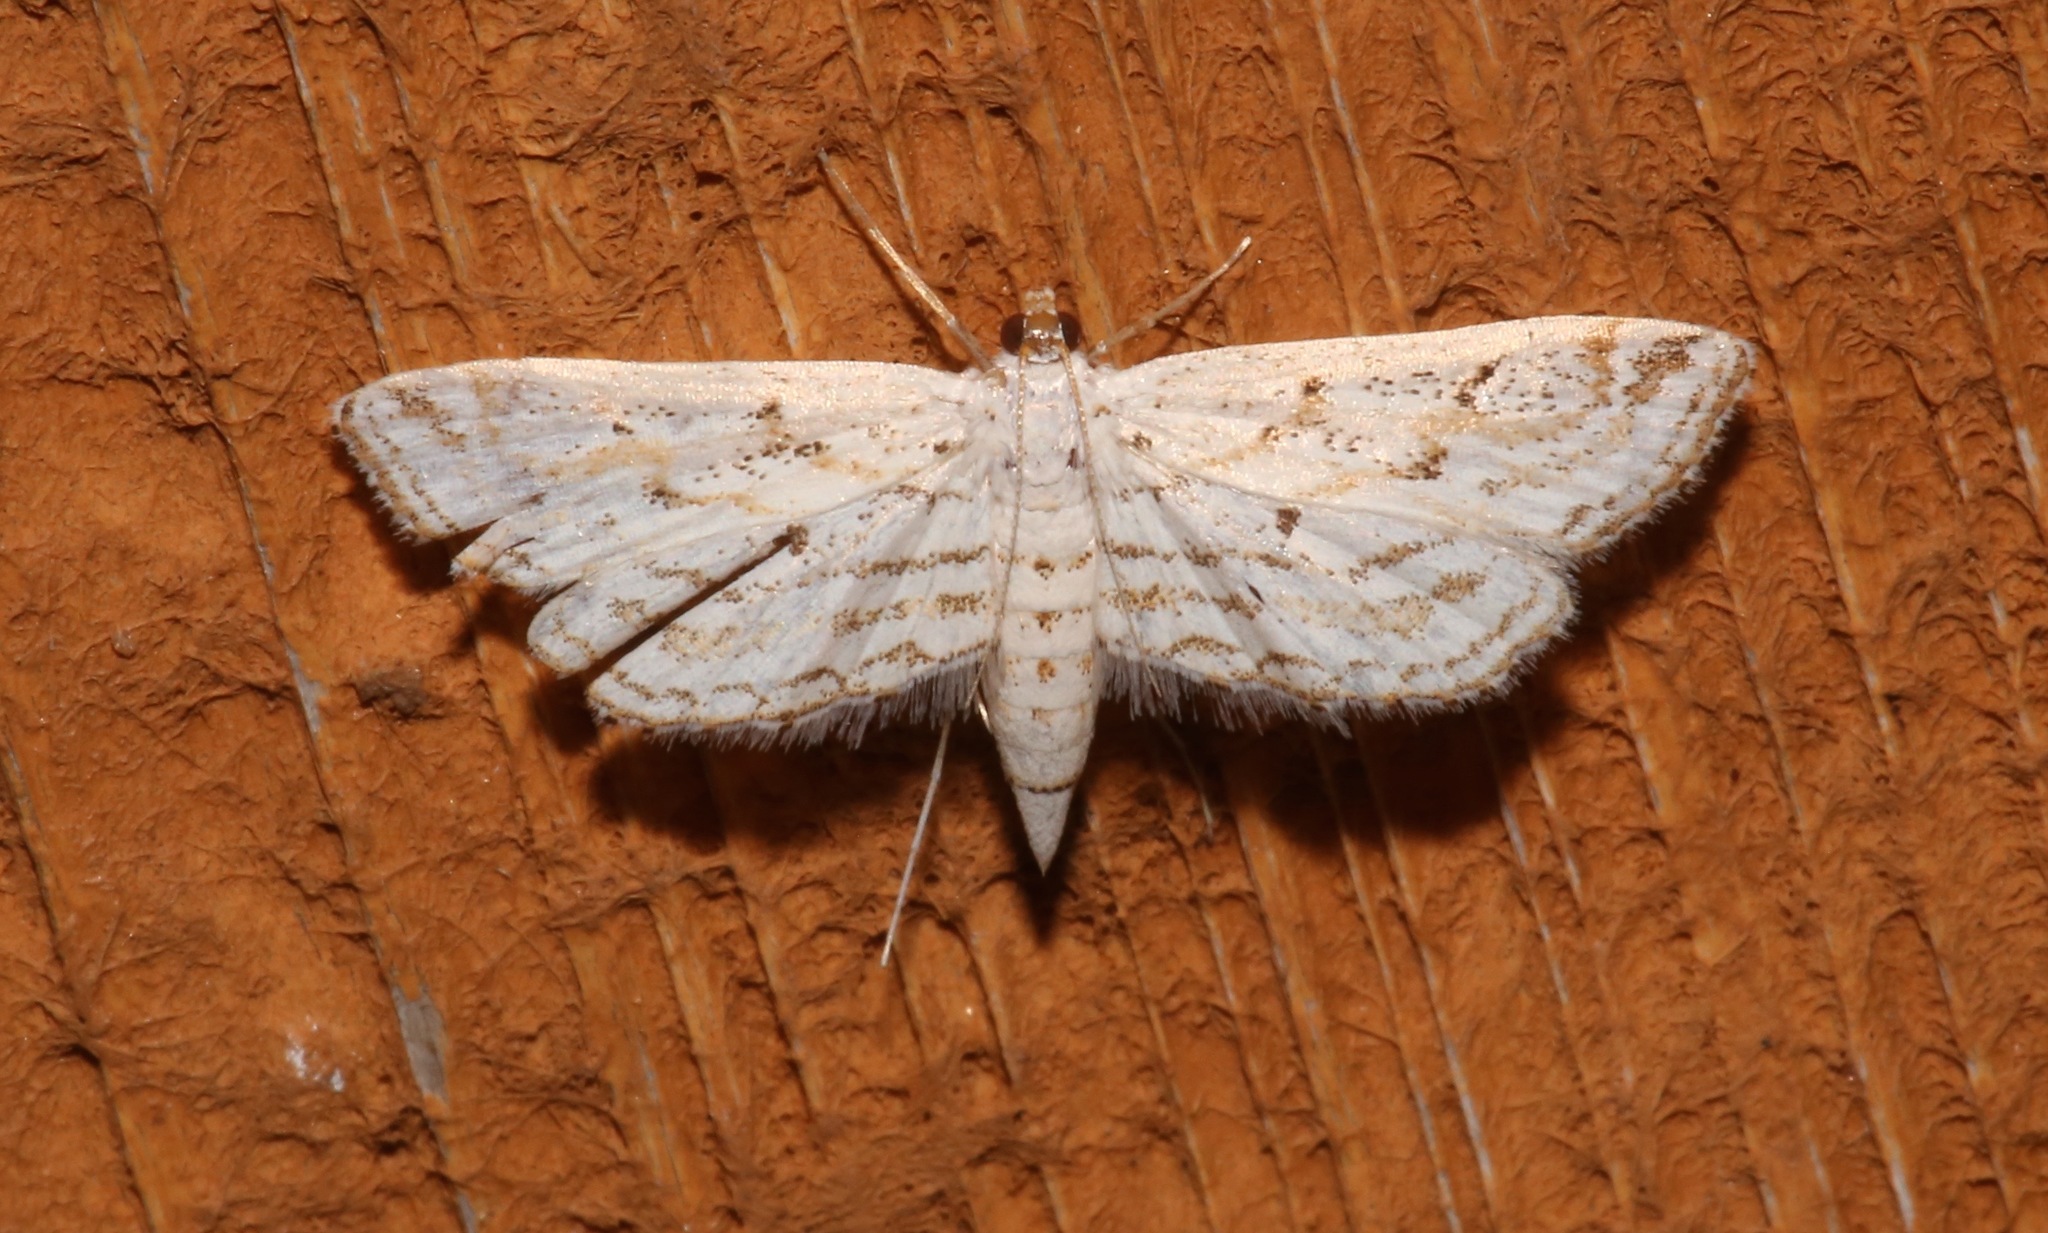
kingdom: Animalia
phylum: Arthropoda
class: Insecta
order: Lepidoptera
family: Crambidae
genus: Parapoynx
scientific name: Parapoynx allionealis
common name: Bladderwort casemaker
